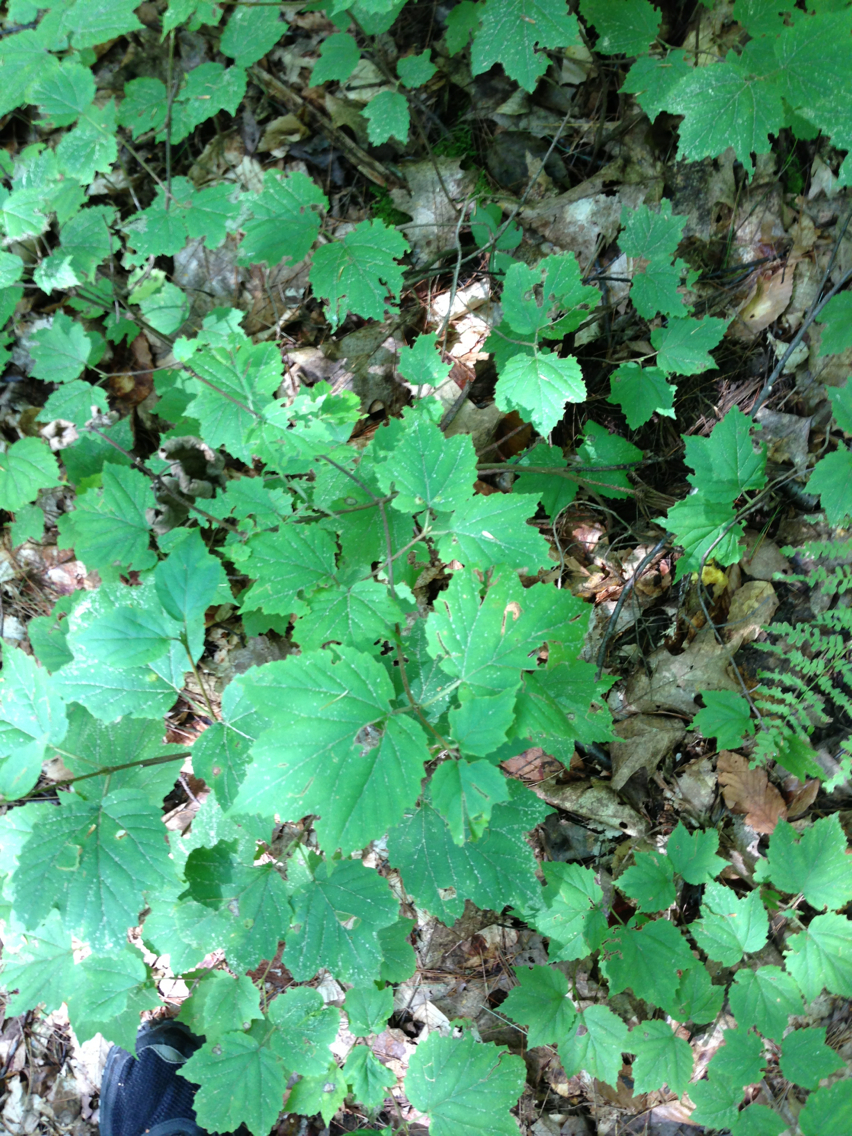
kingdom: Plantae
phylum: Tracheophyta
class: Magnoliopsida
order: Dipsacales
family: Viburnaceae
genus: Viburnum
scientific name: Viburnum acerifolium
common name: Dockmackie
